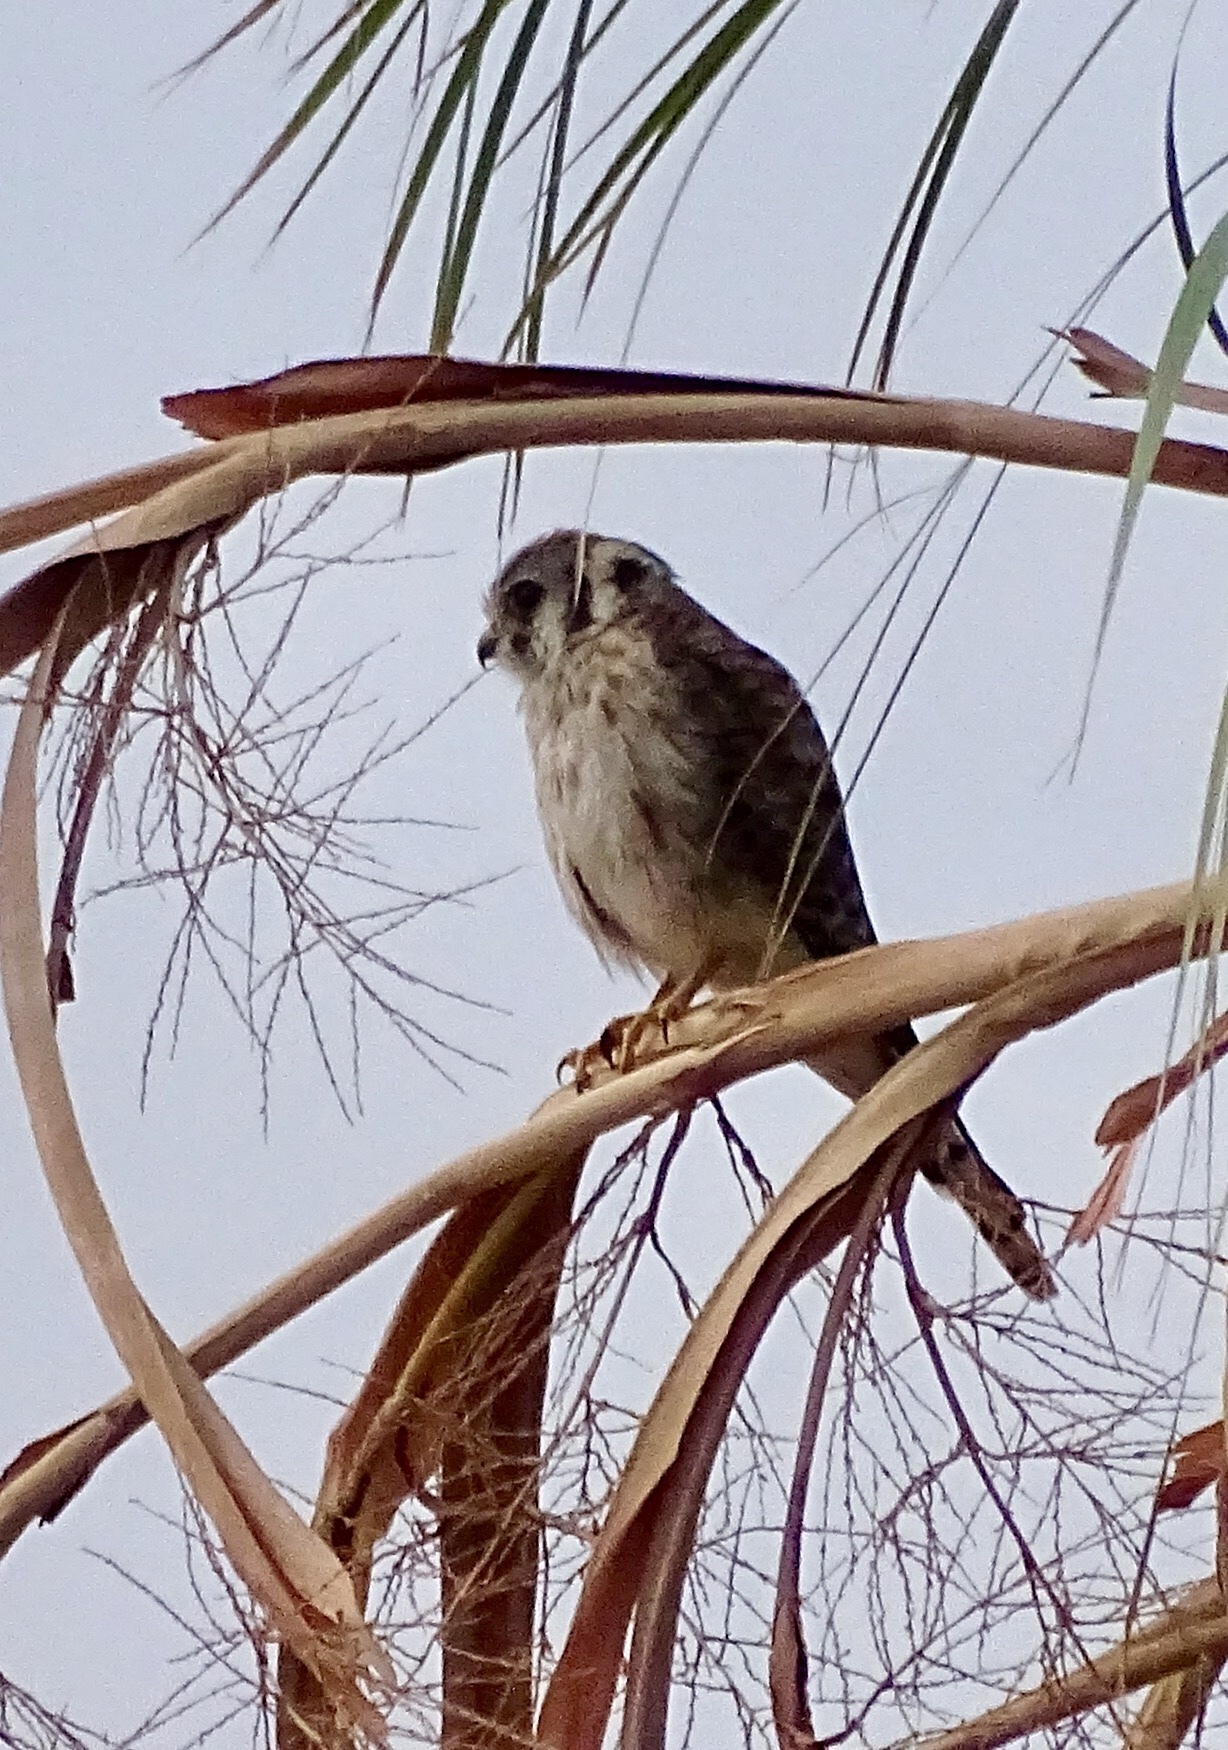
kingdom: Animalia
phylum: Chordata
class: Aves
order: Falconiformes
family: Falconidae
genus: Falco
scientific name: Falco sparverius
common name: American kestrel
